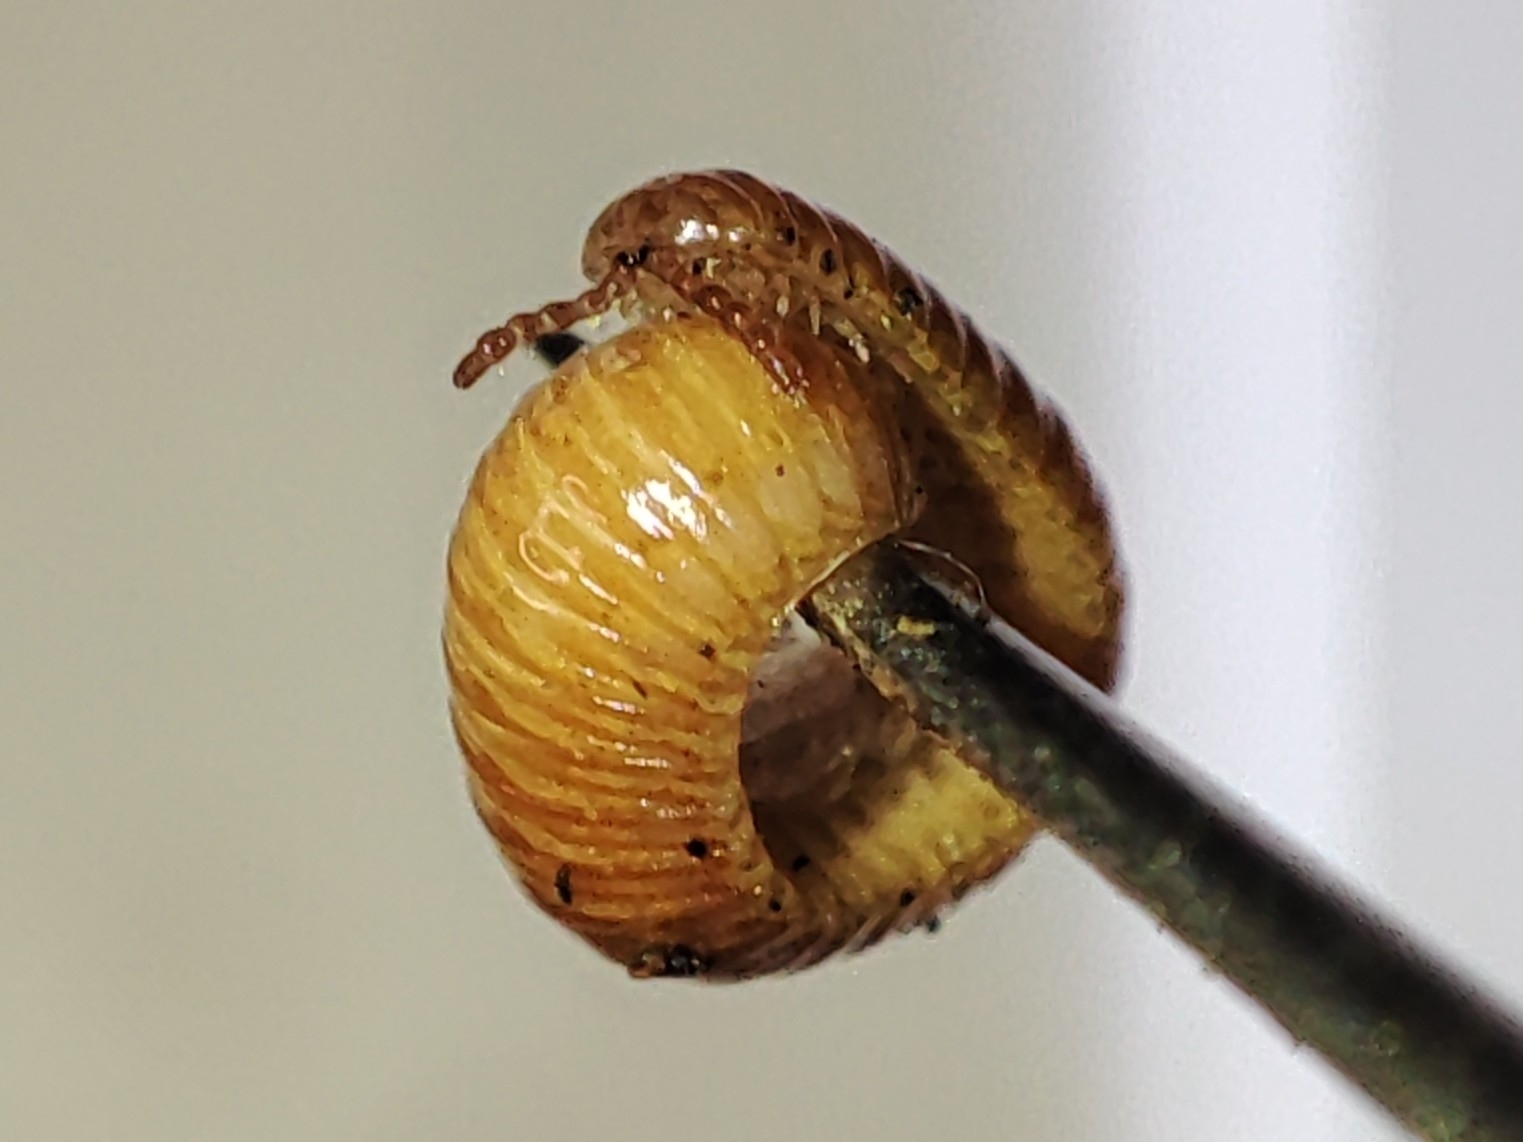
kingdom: Animalia
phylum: Arthropoda
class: Diplopoda
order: Polyzoniida
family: Polyzoniidae
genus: Polyzonium
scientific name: Polyzonium germanicum
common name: Boring millipede
